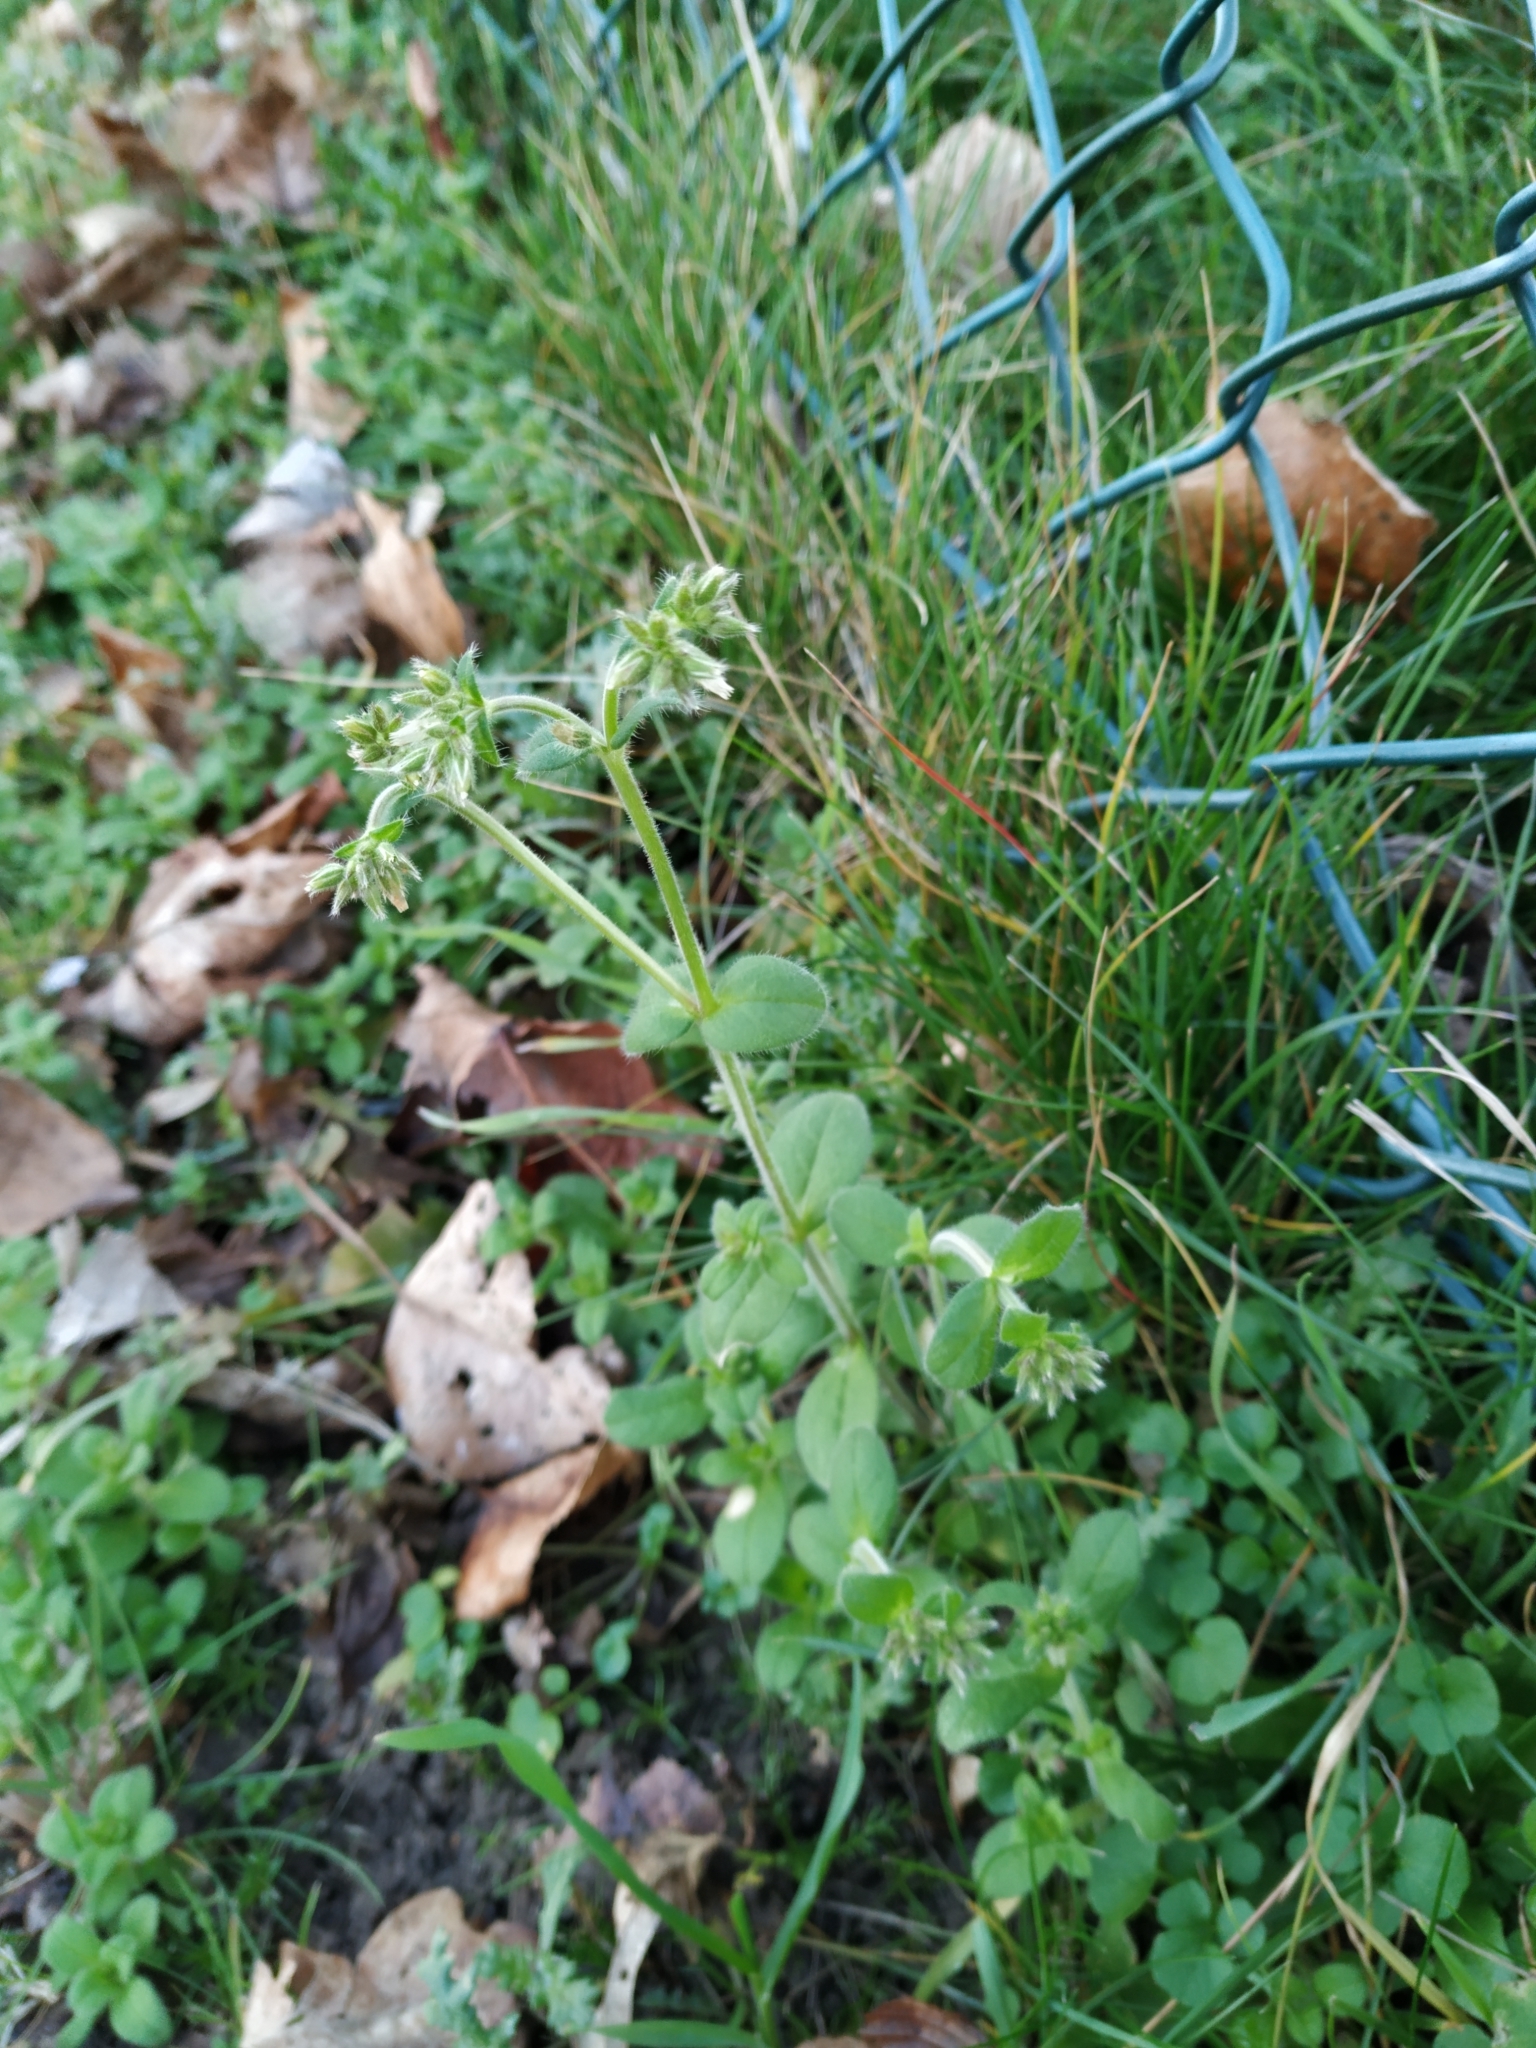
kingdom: Plantae
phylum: Tracheophyta
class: Magnoliopsida
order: Caryophyllales
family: Caryophyllaceae
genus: Cerastium
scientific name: Cerastium glomeratum
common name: Sticky chickweed
